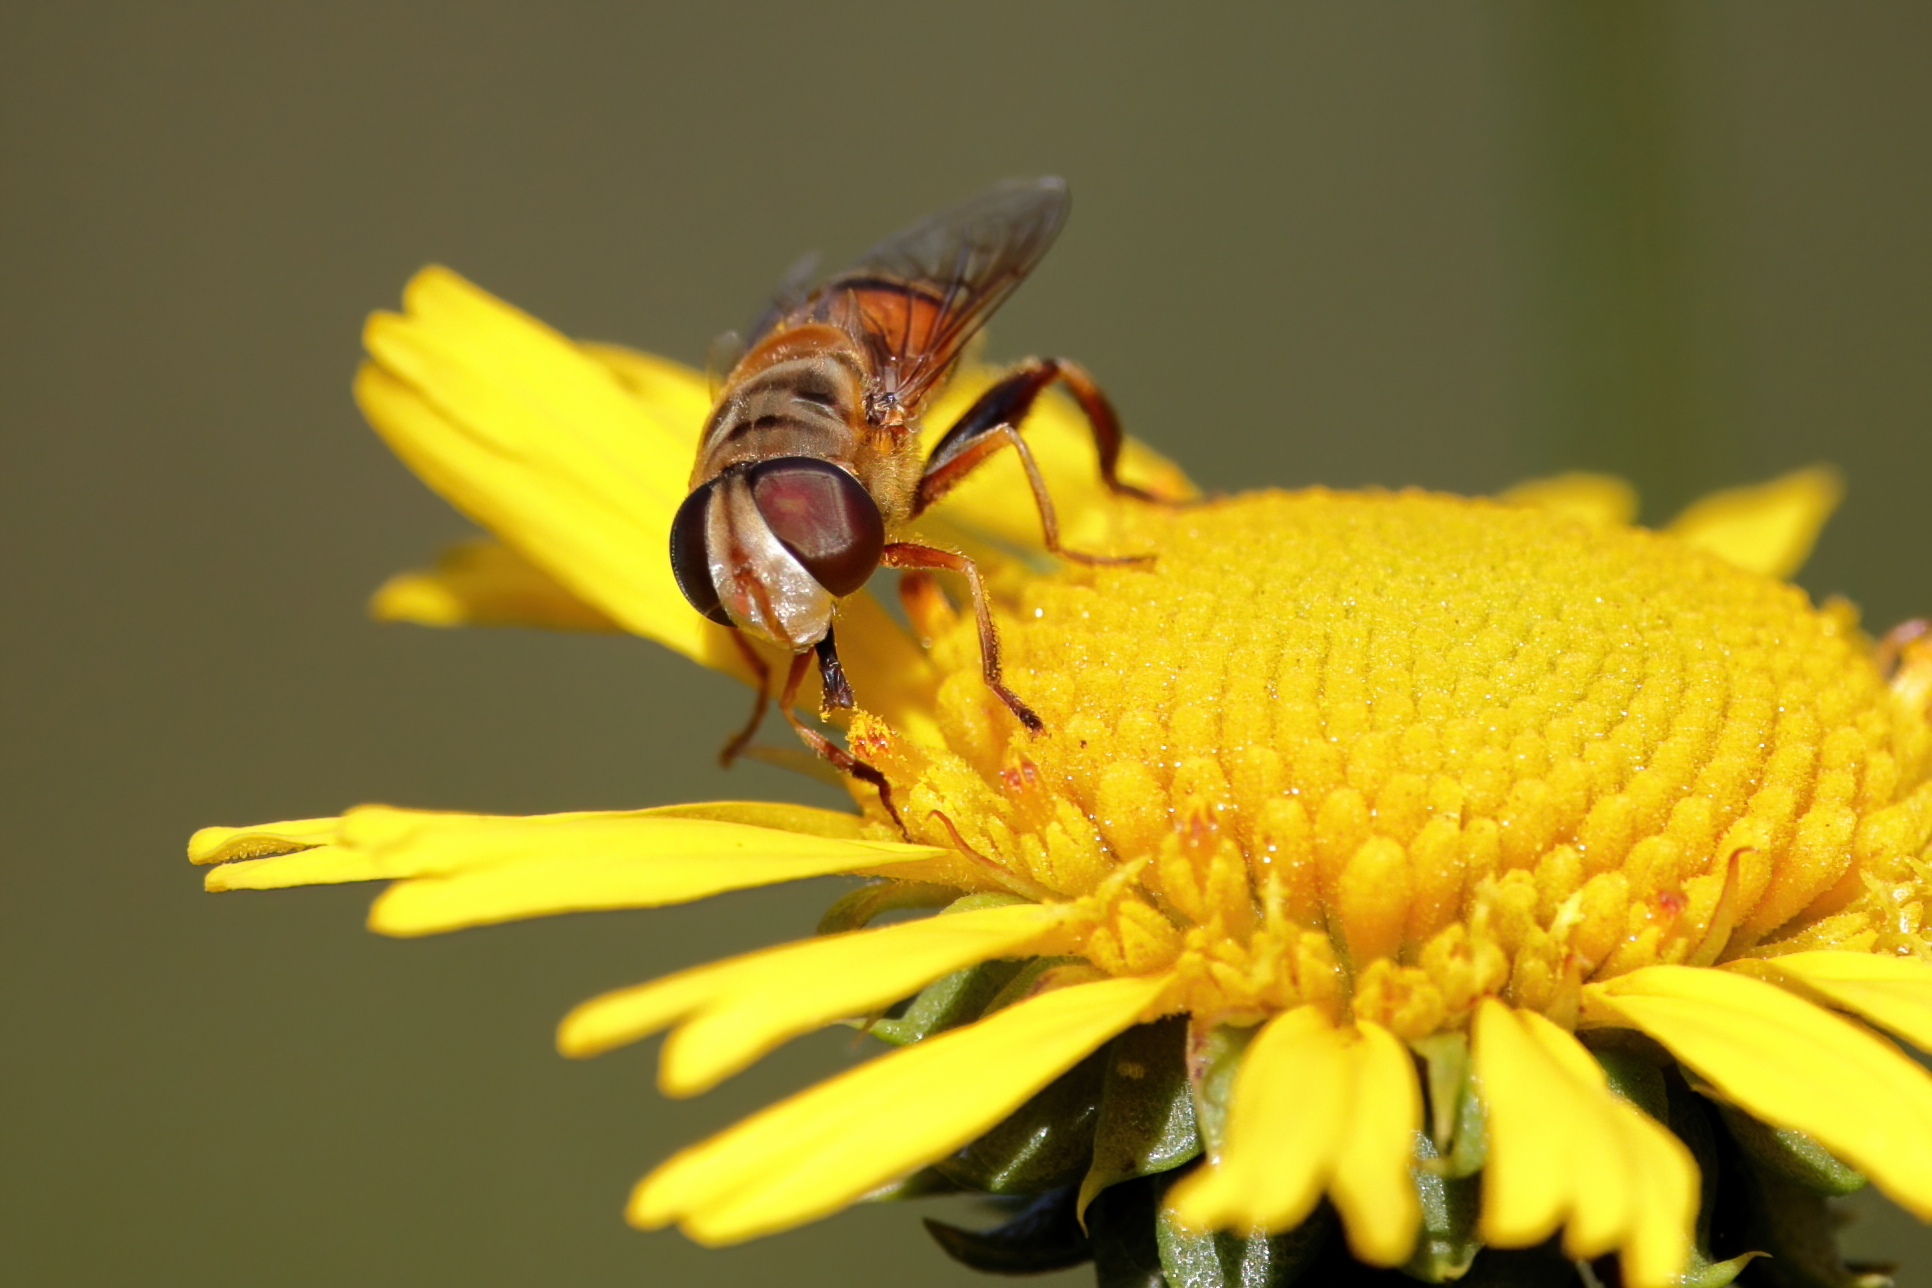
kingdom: Animalia
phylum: Arthropoda
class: Insecta
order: Diptera
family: Syrphidae
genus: Palpada
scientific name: Palpada vinetorum
